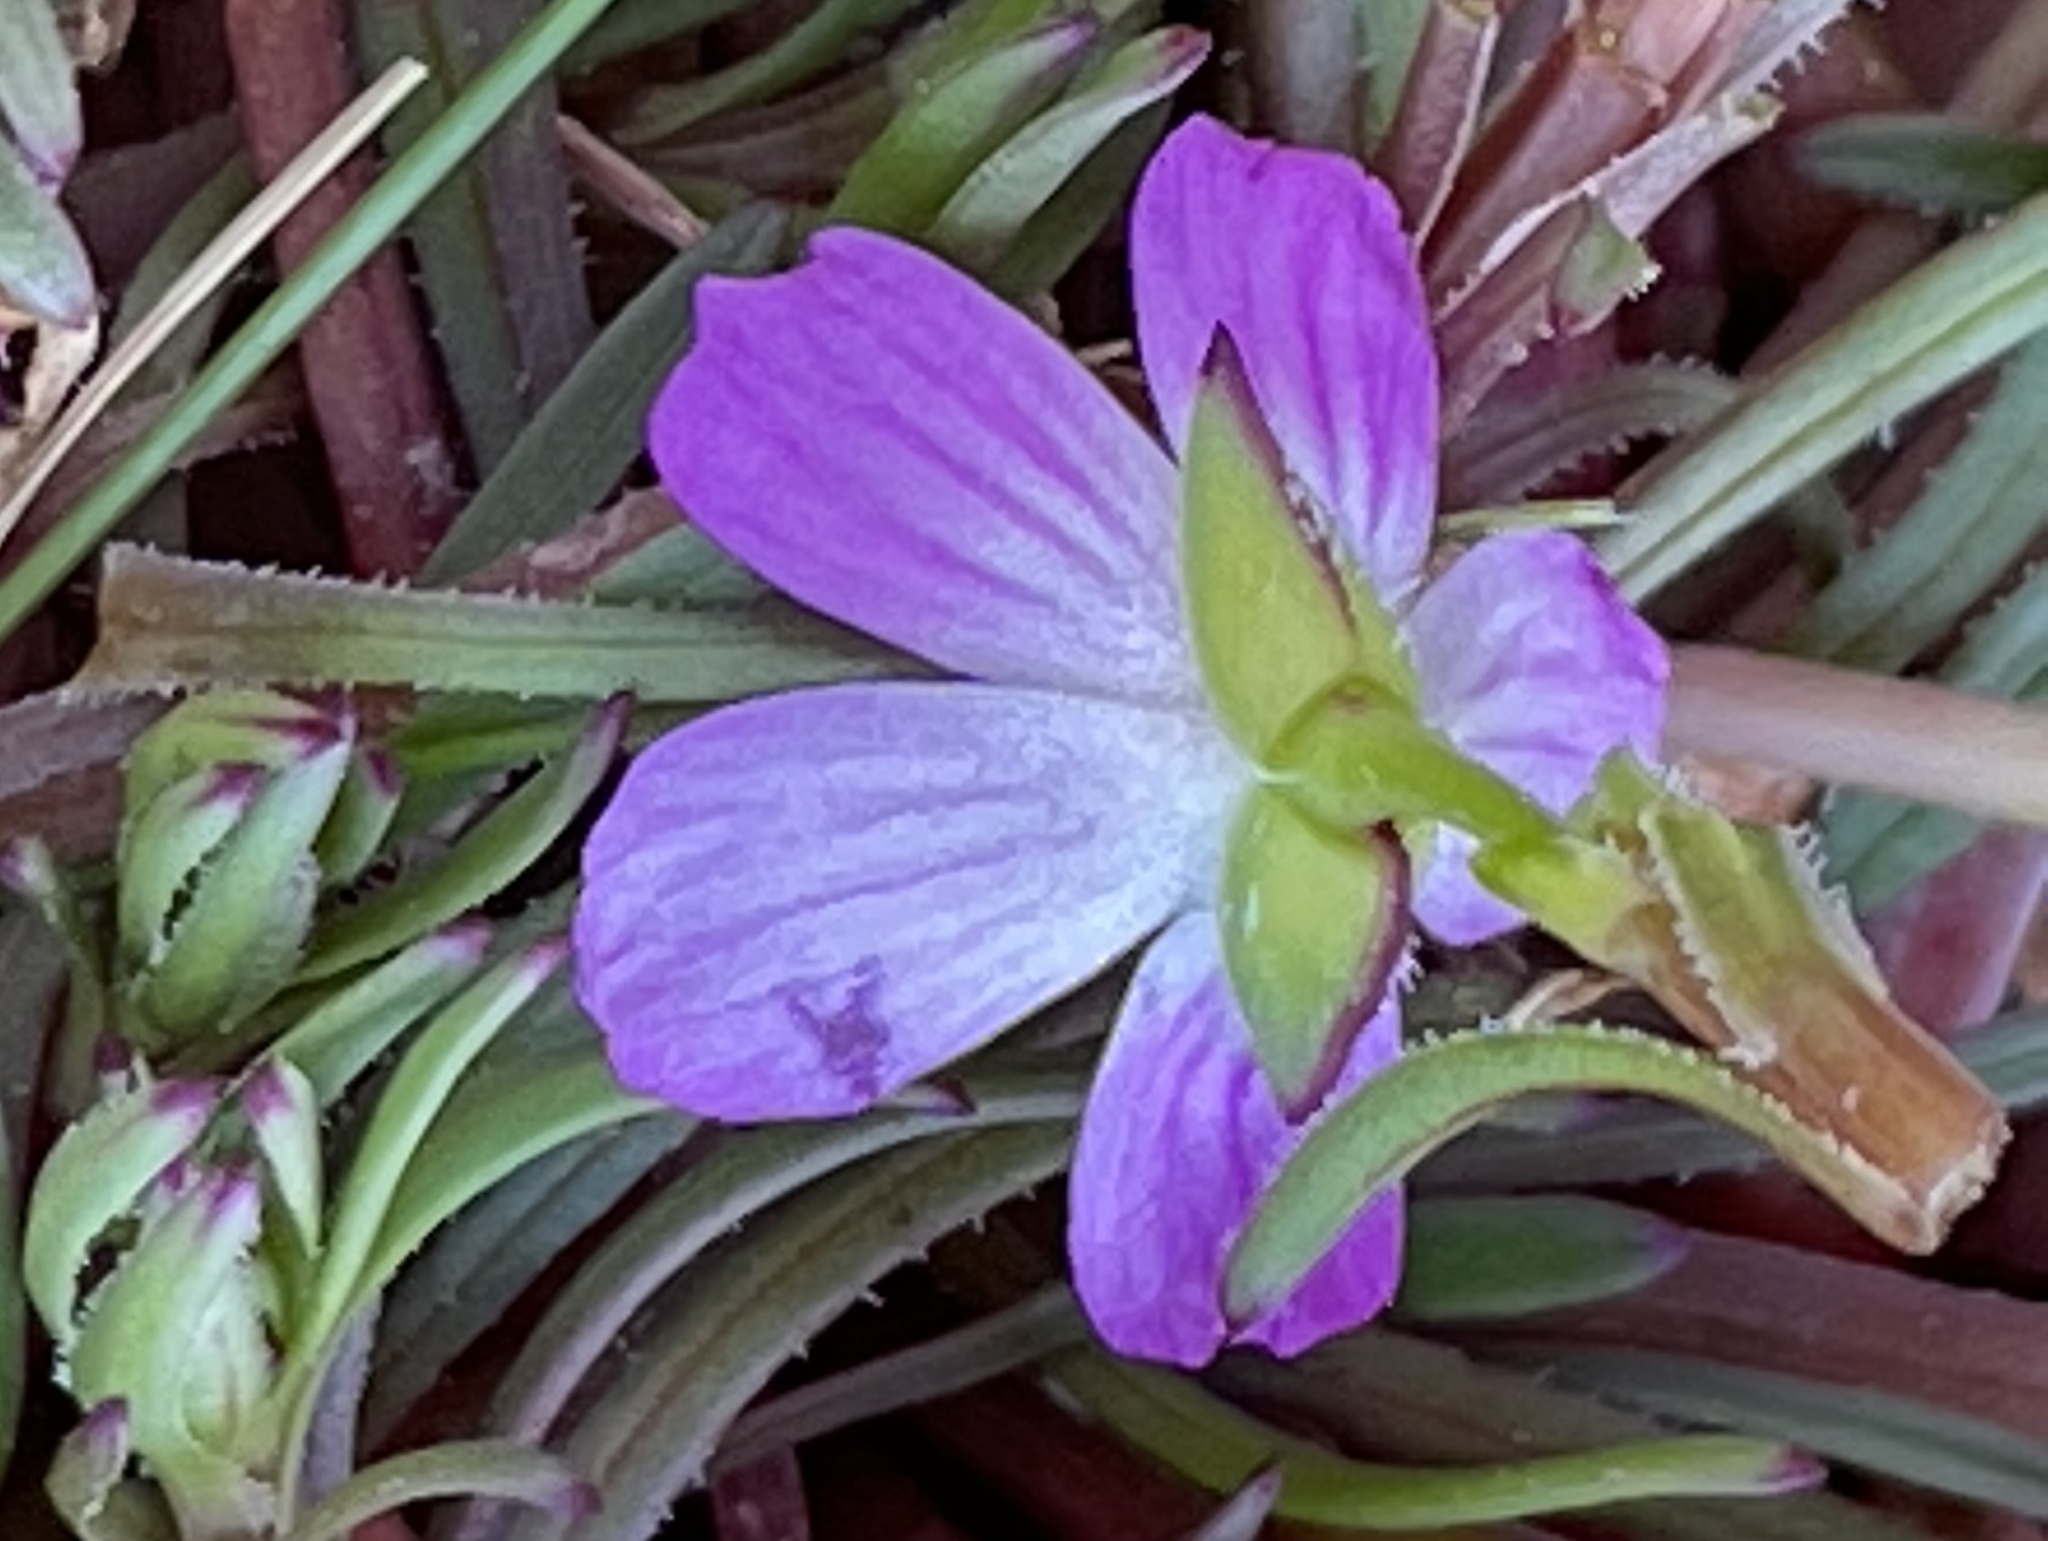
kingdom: Plantae
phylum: Tracheophyta
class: Magnoliopsida
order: Caryophyllales
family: Montiaceae
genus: Calandrinia
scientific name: Calandrinia menziesii
